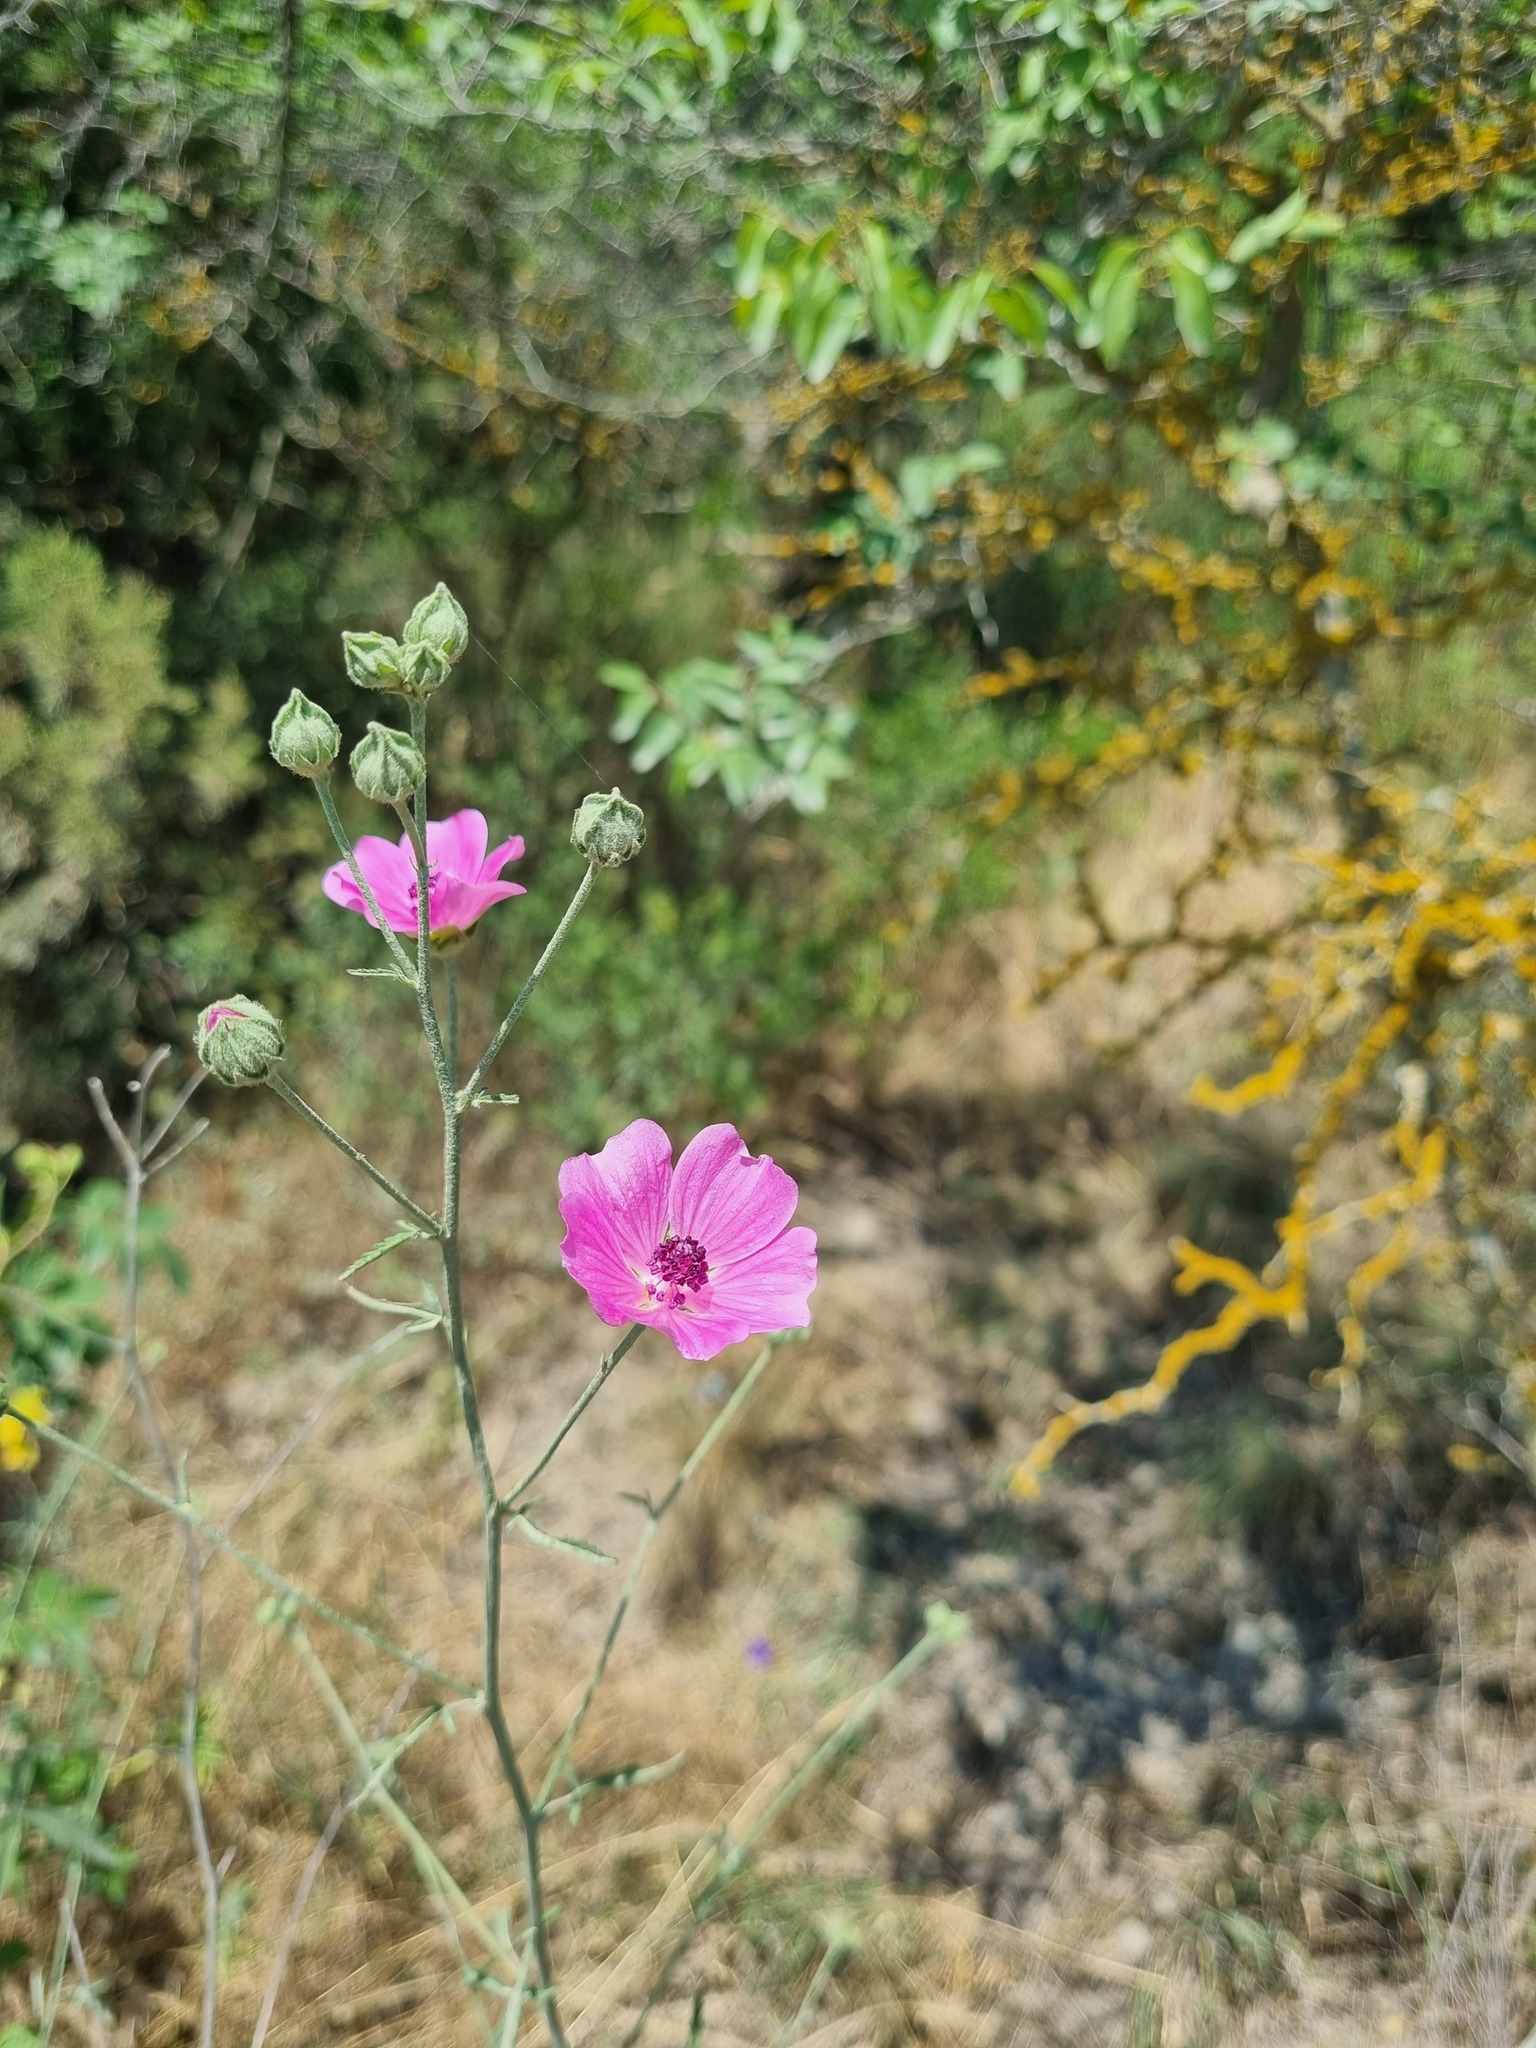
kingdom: Plantae
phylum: Tracheophyta
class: Magnoliopsida
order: Malvales
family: Malvaceae
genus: Althaea
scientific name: Althaea cannabina
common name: Palm-leaf marshmallow
